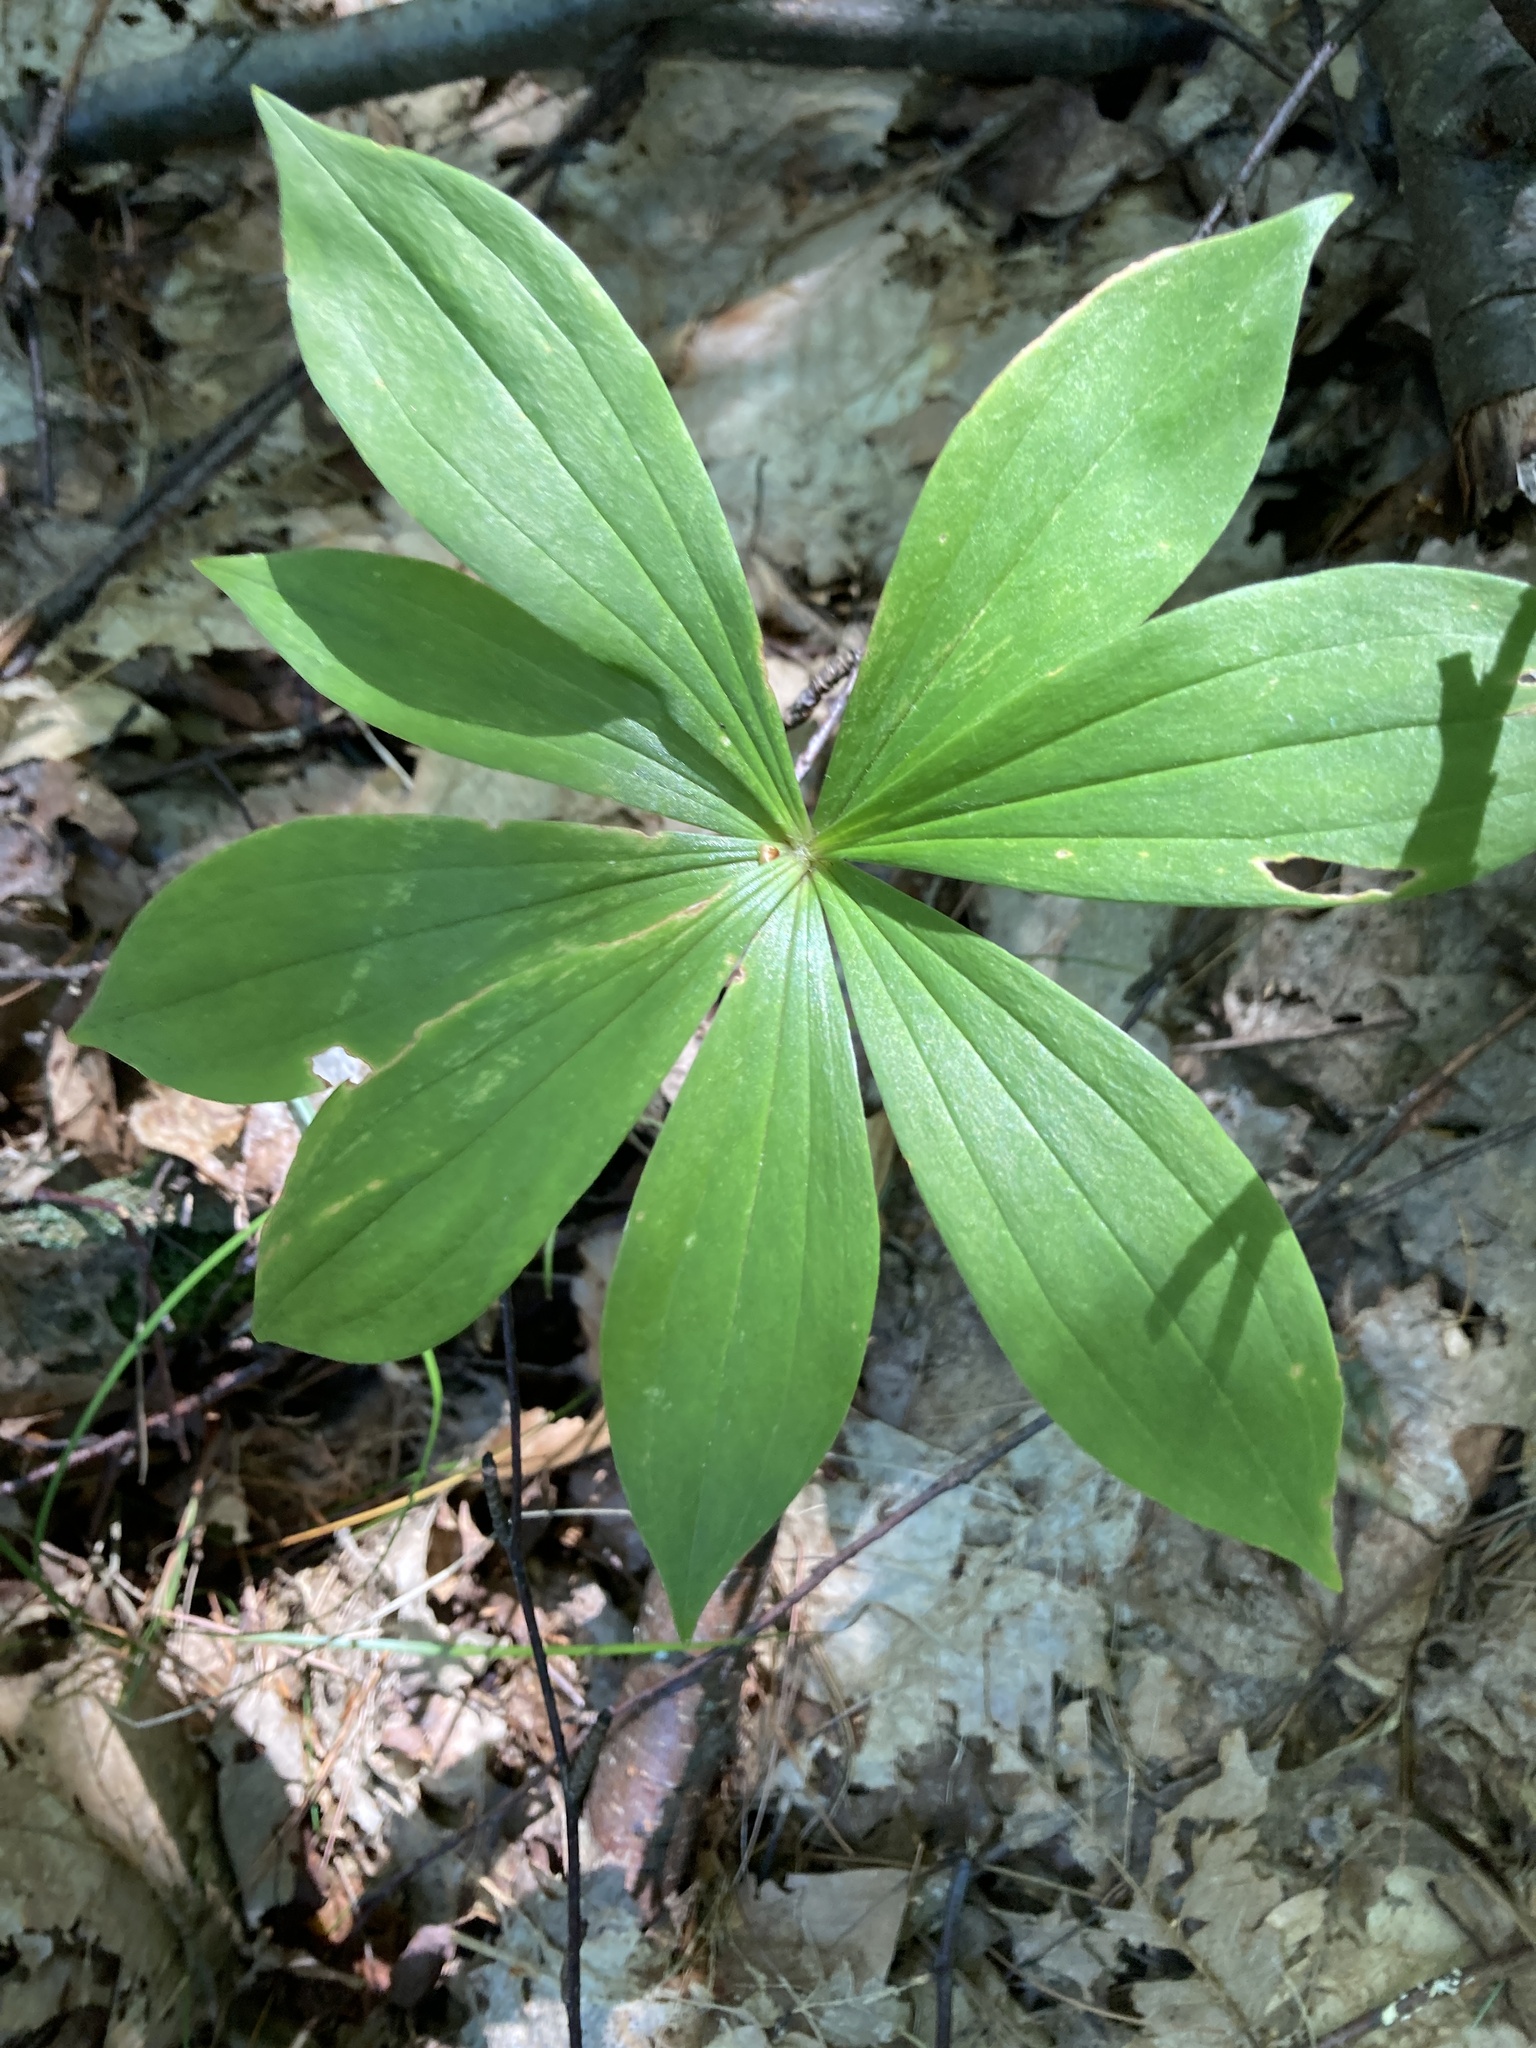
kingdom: Plantae
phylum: Tracheophyta
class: Liliopsida
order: Liliales
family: Liliaceae
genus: Medeola
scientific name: Medeola virginiana
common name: Indian cucumber-root
